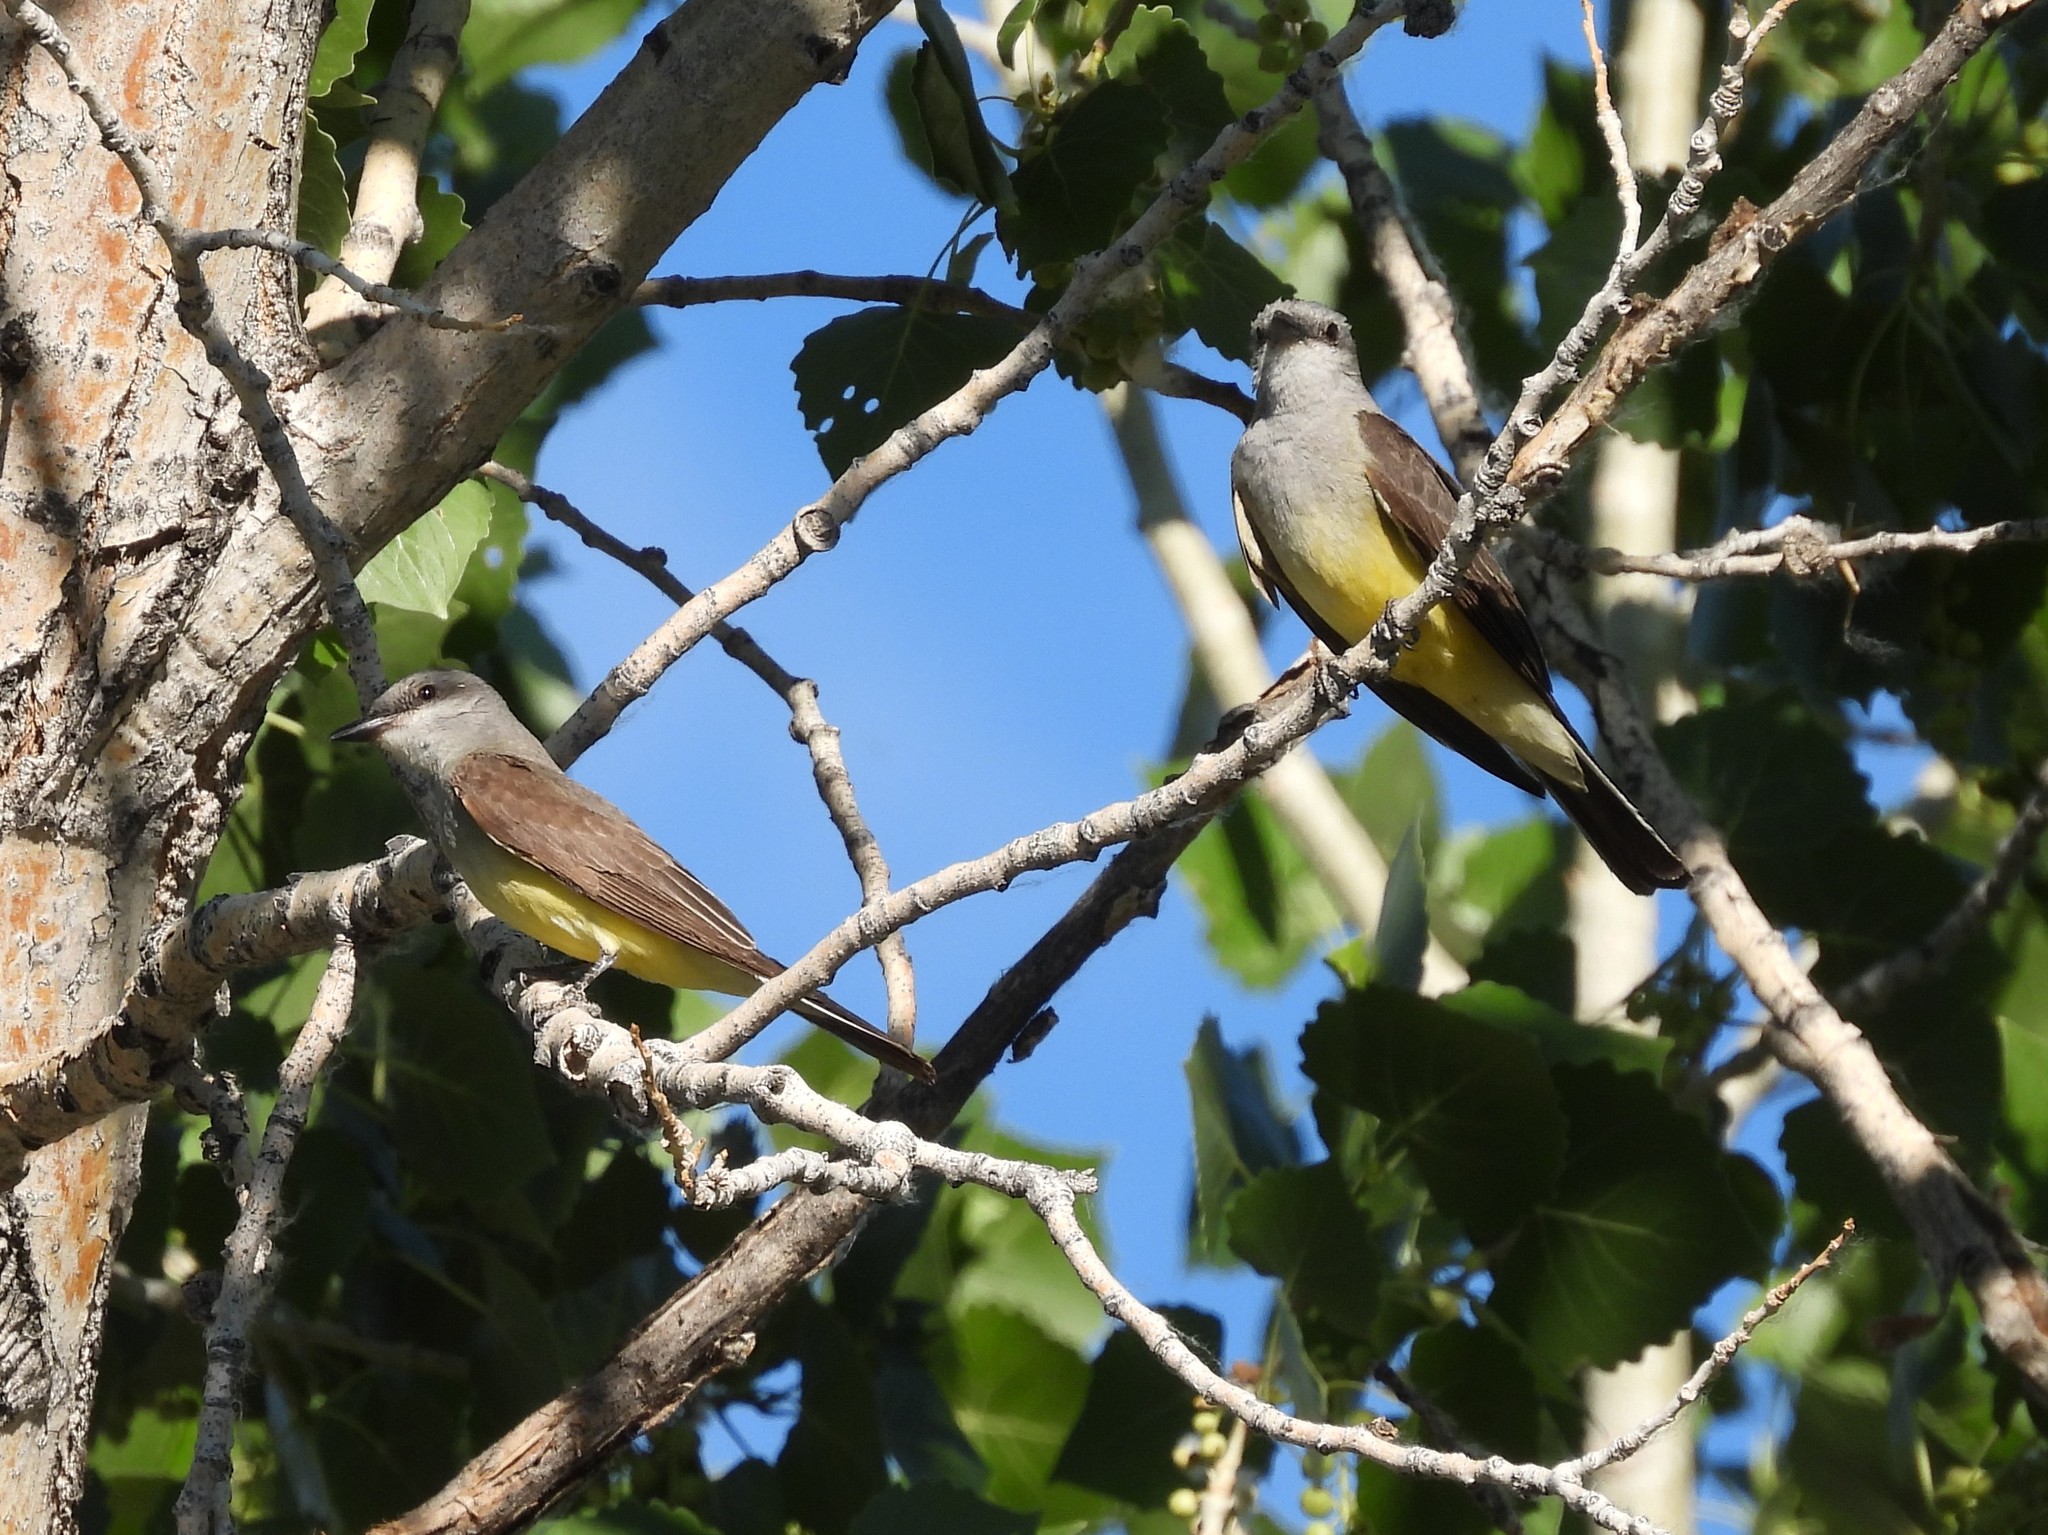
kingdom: Animalia
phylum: Chordata
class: Aves
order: Passeriformes
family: Tyrannidae
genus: Tyrannus
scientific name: Tyrannus verticalis
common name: Western kingbird
